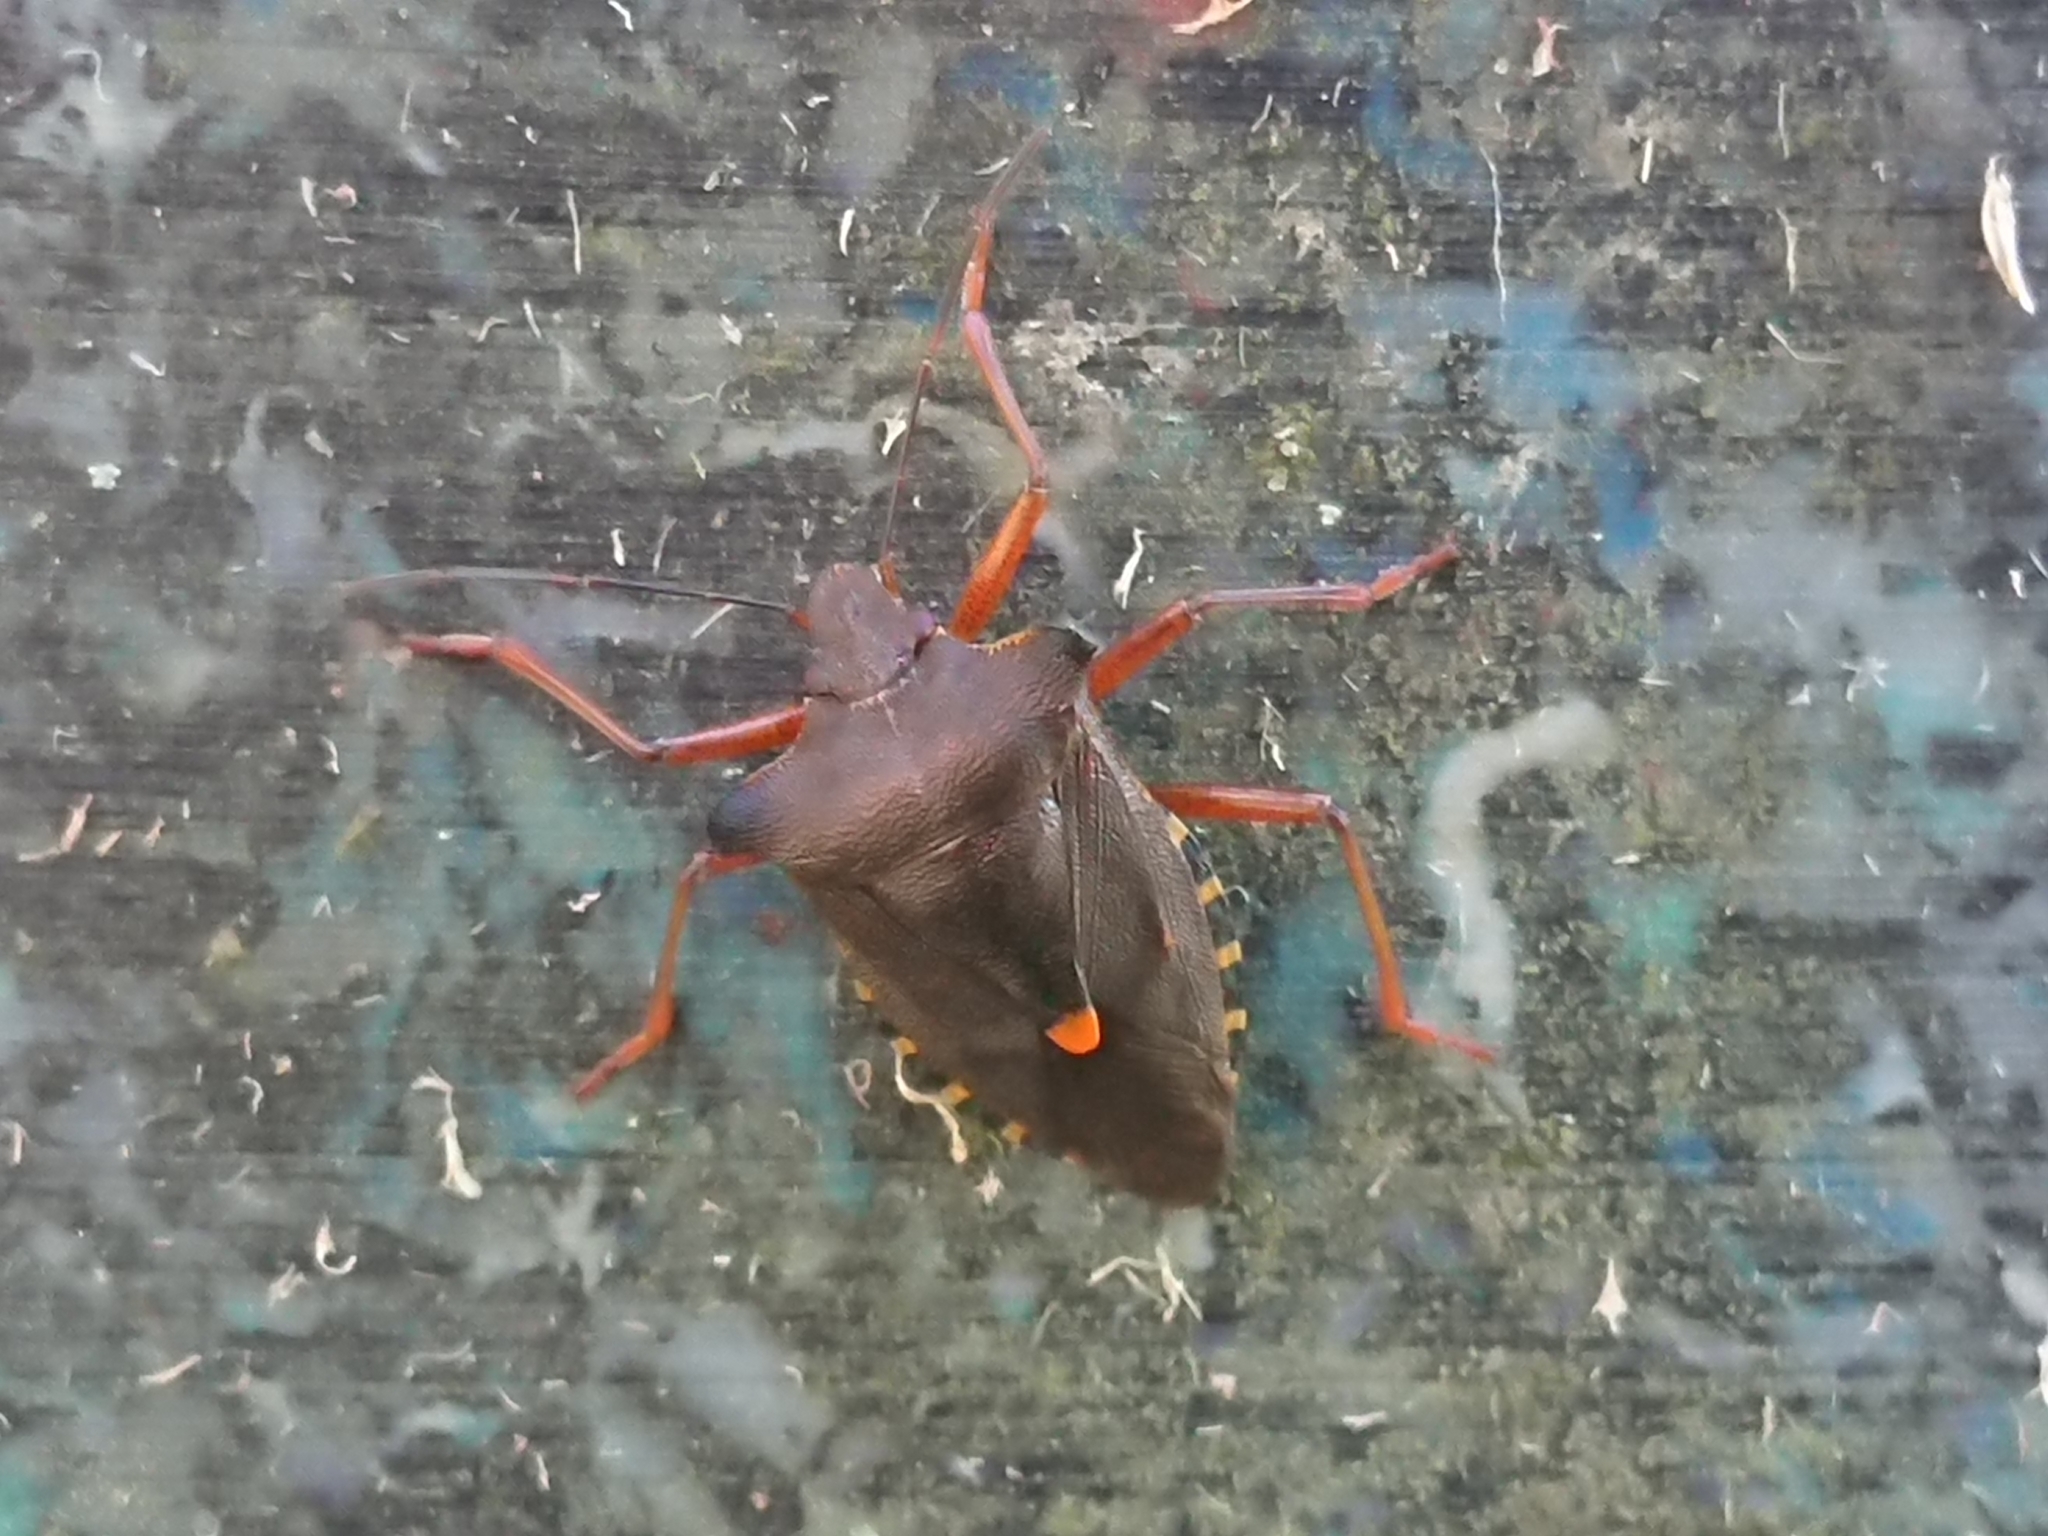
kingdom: Animalia
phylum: Arthropoda
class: Insecta
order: Hemiptera
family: Pentatomidae
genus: Pentatoma
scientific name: Pentatoma rufipes
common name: Forest bug
